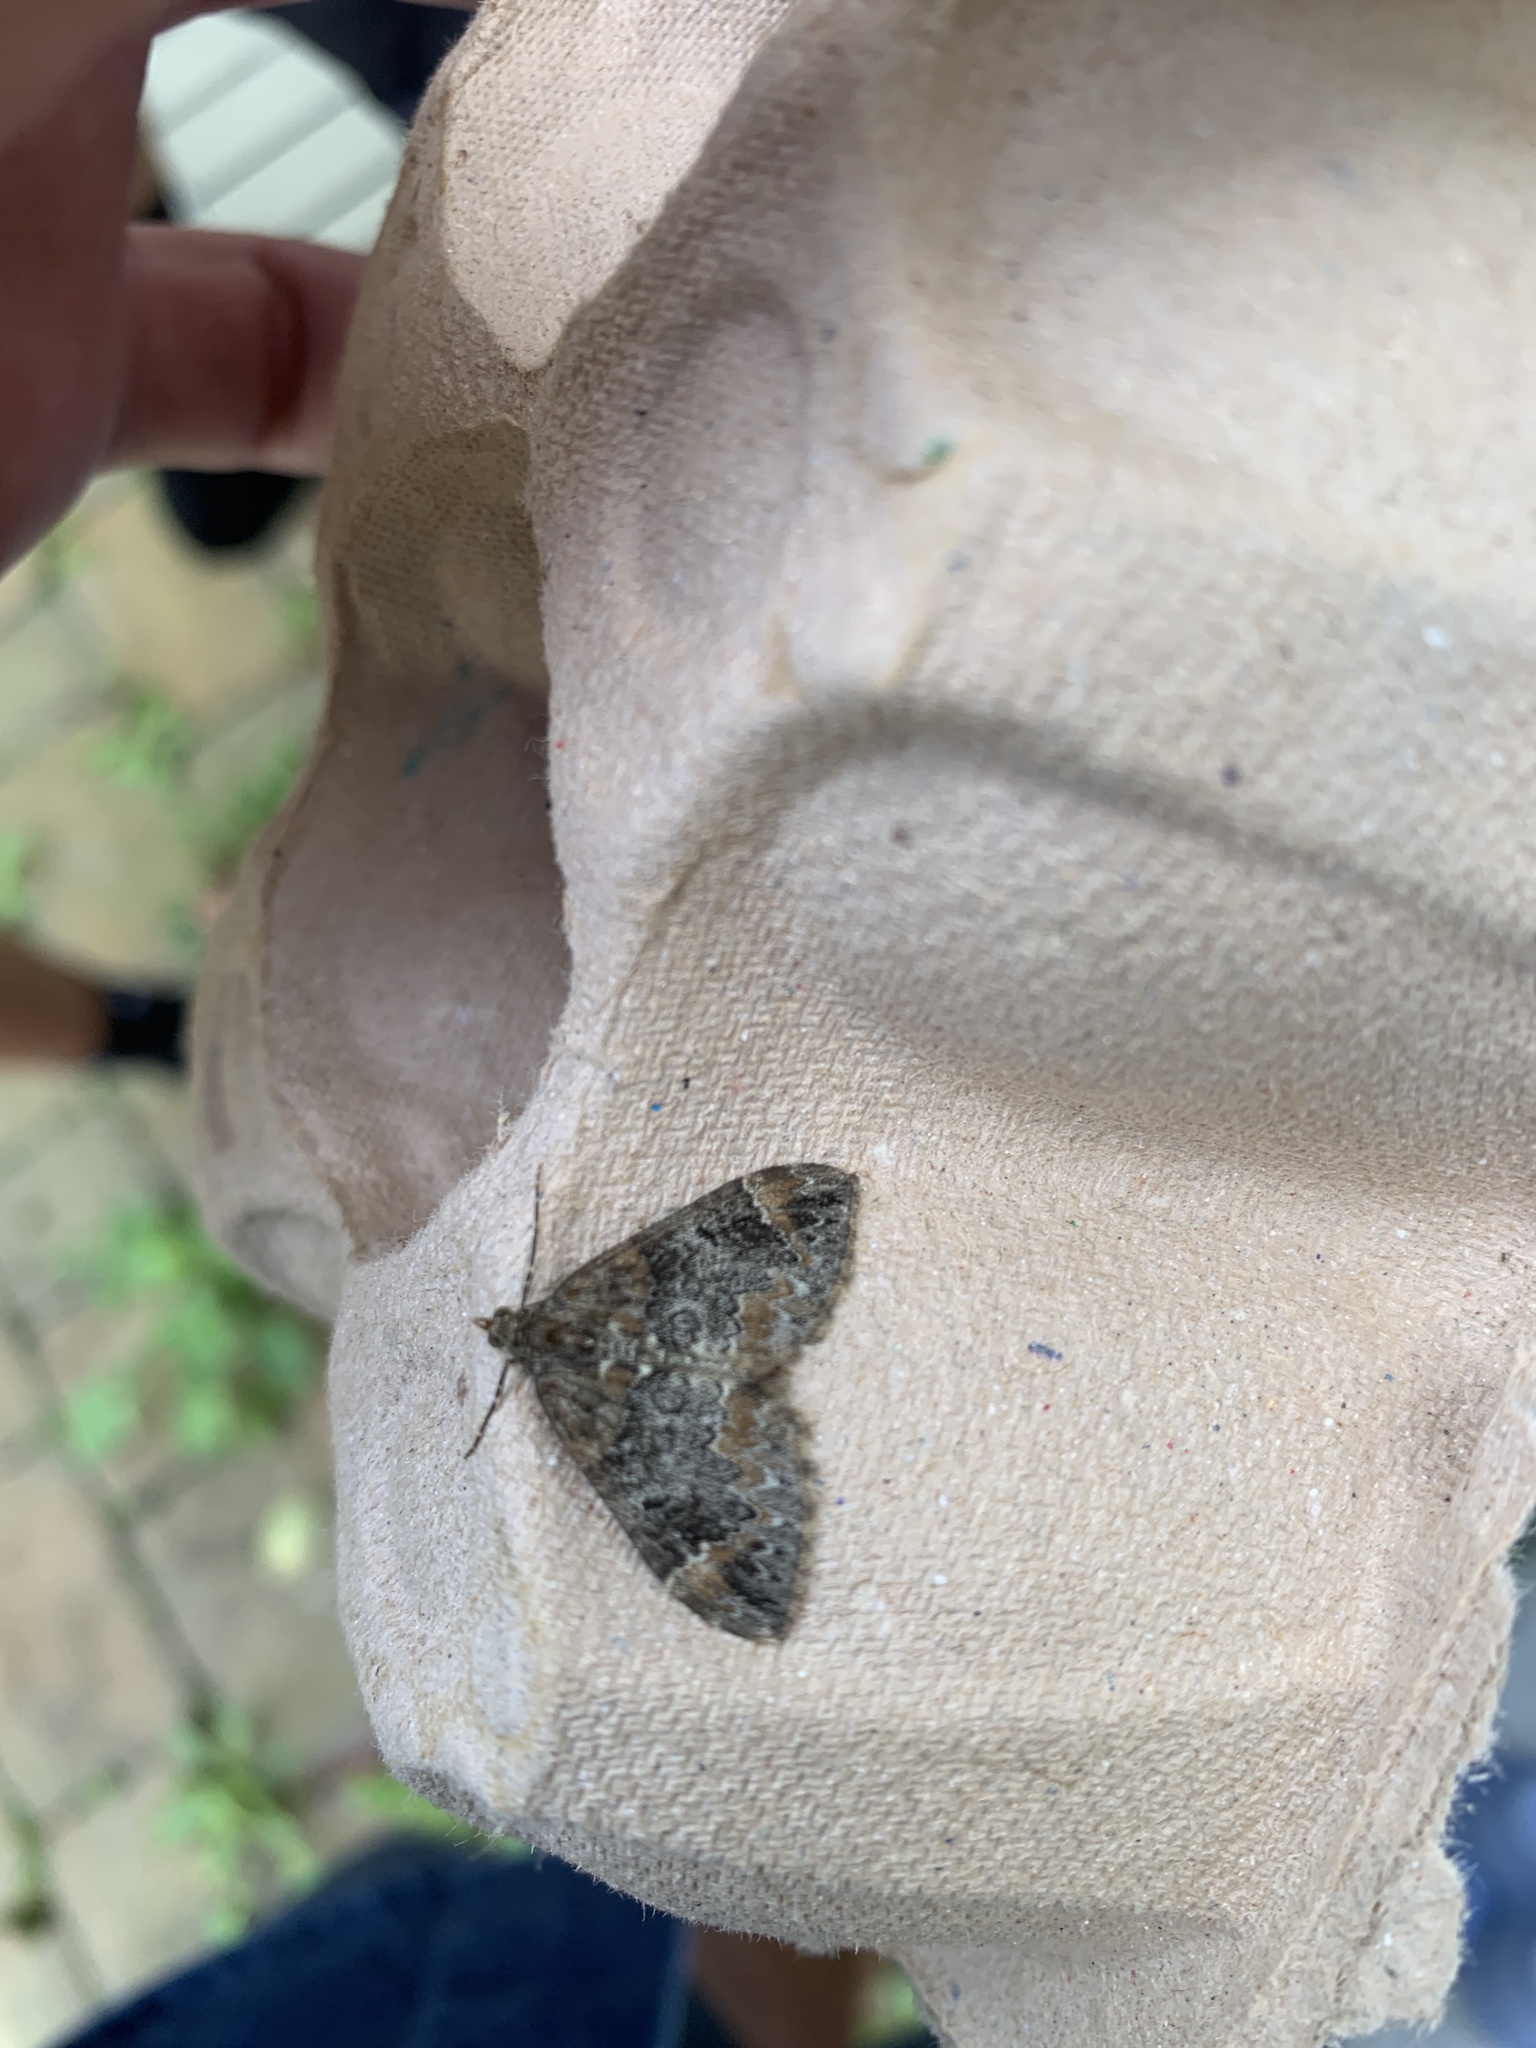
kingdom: Animalia
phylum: Arthropoda
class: Insecta
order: Lepidoptera
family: Geometridae
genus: Dysstroma
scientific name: Dysstroma truncata
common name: Common marbled carpet
